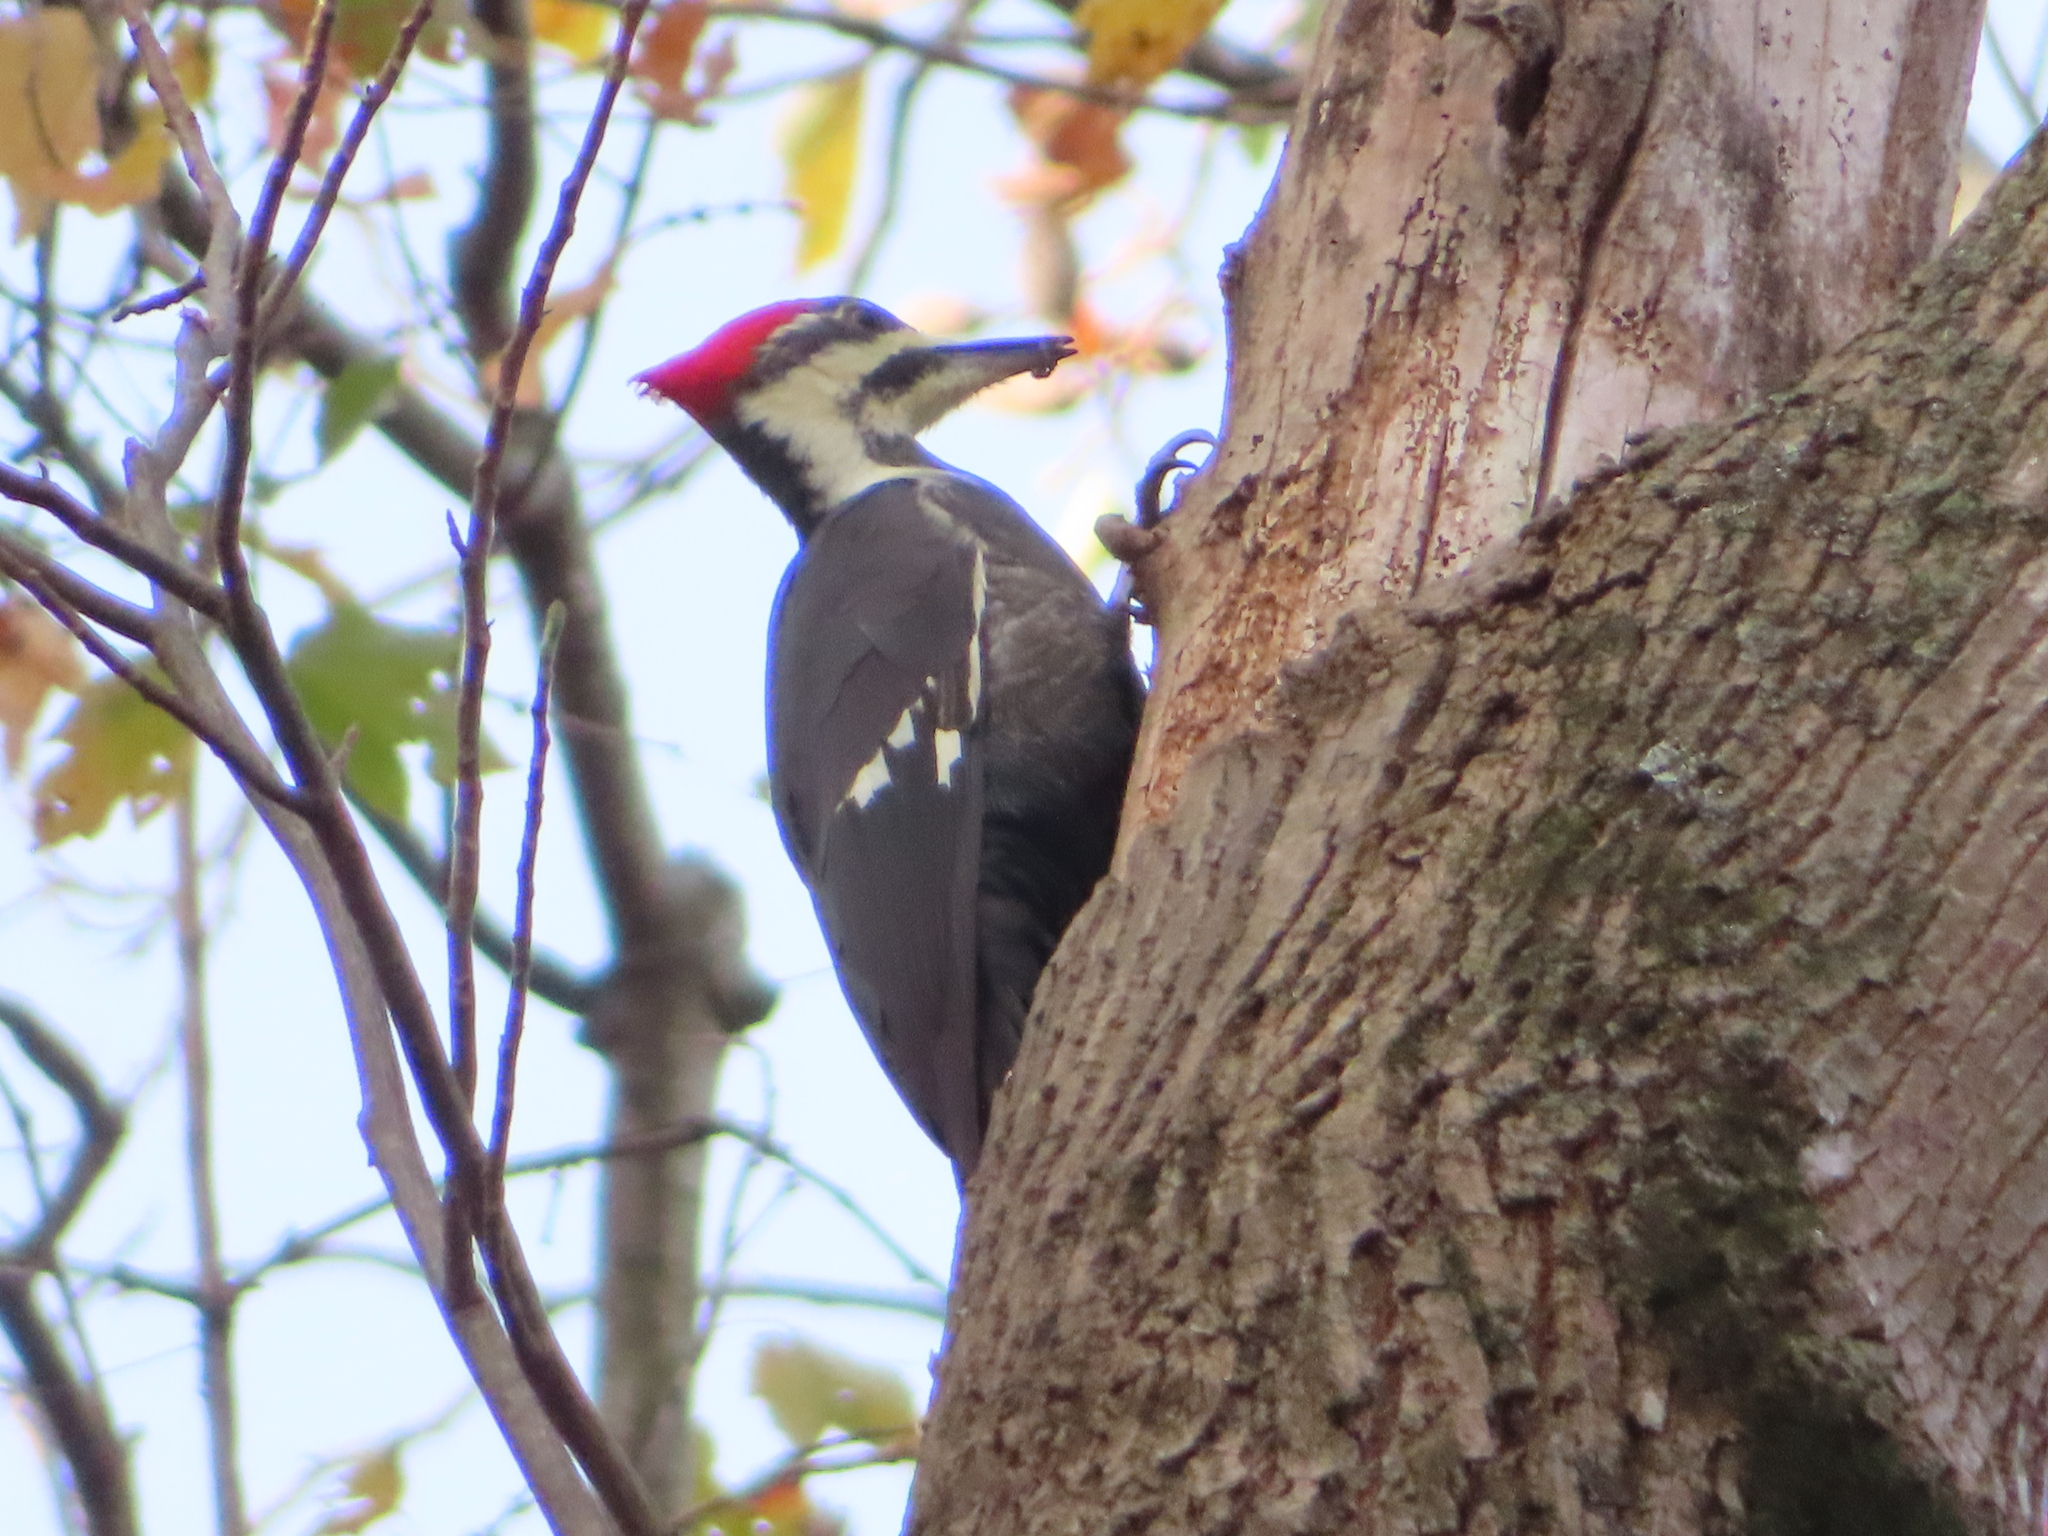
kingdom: Animalia
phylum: Chordata
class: Aves
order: Piciformes
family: Picidae
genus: Dryocopus
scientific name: Dryocopus pileatus
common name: Pileated woodpecker
